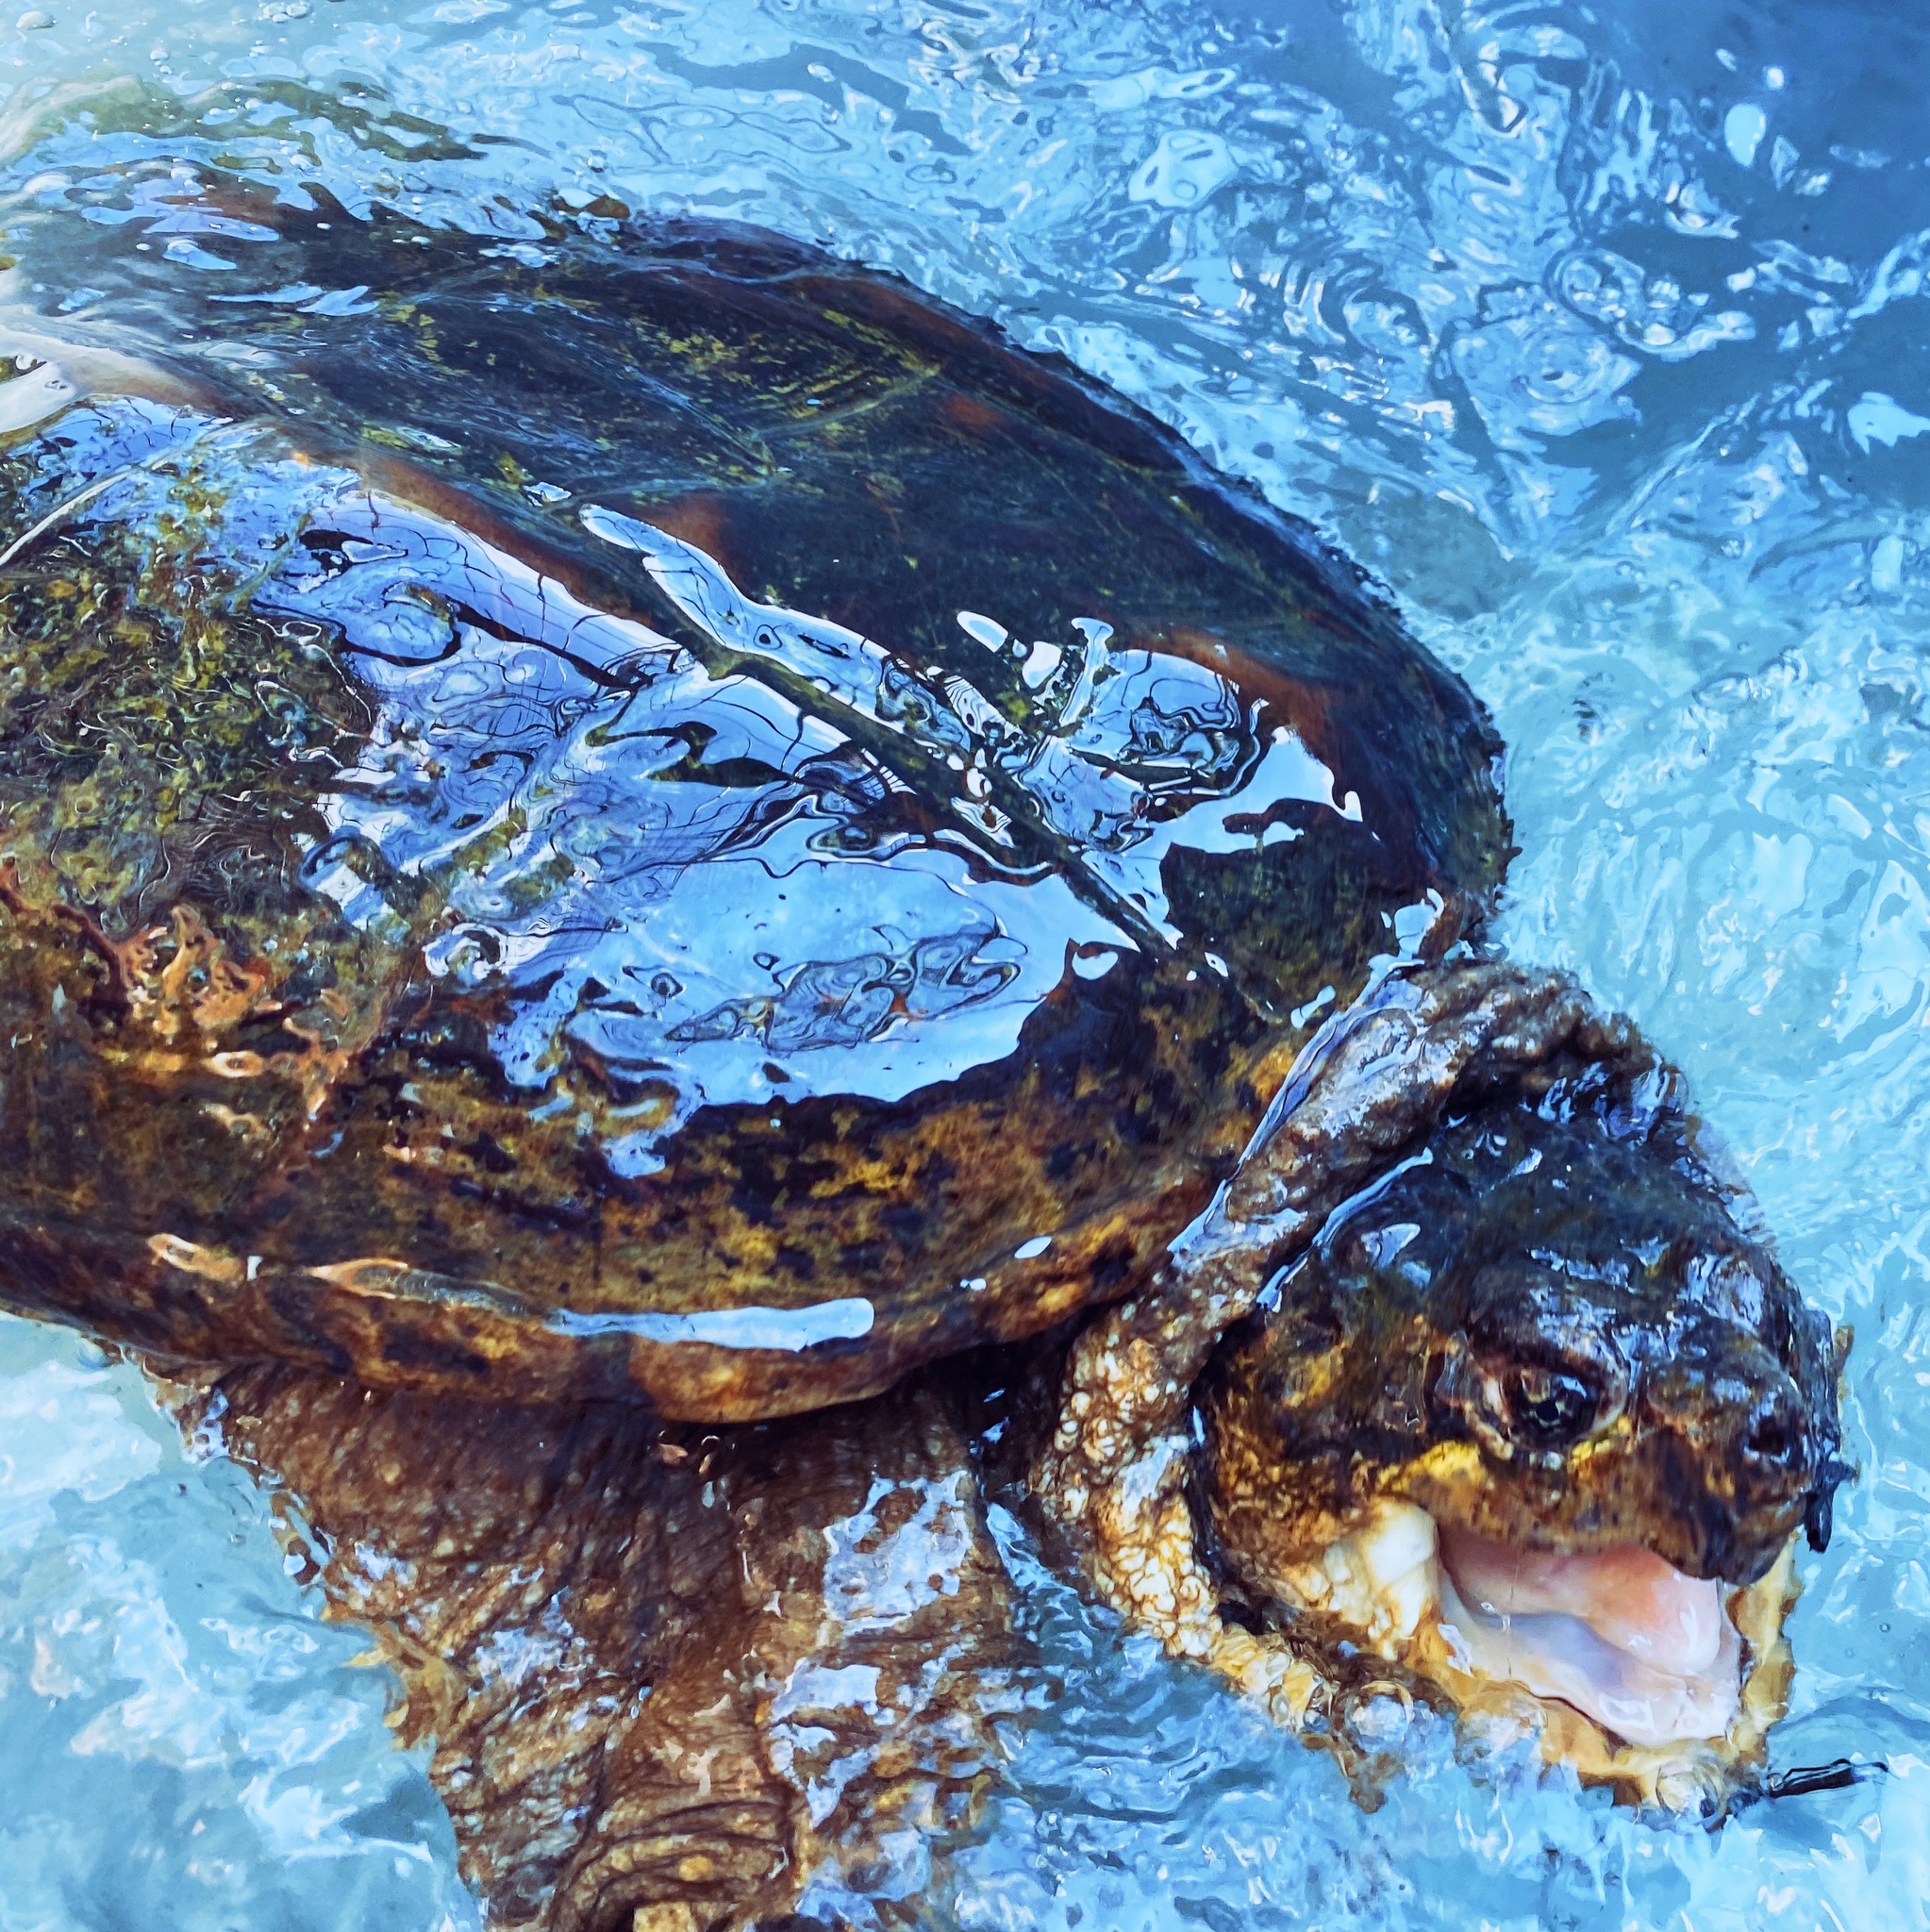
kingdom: Animalia
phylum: Chordata
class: Testudines
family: Chelydridae
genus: Chelydra
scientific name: Chelydra serpentina
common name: Common snapping turtle
